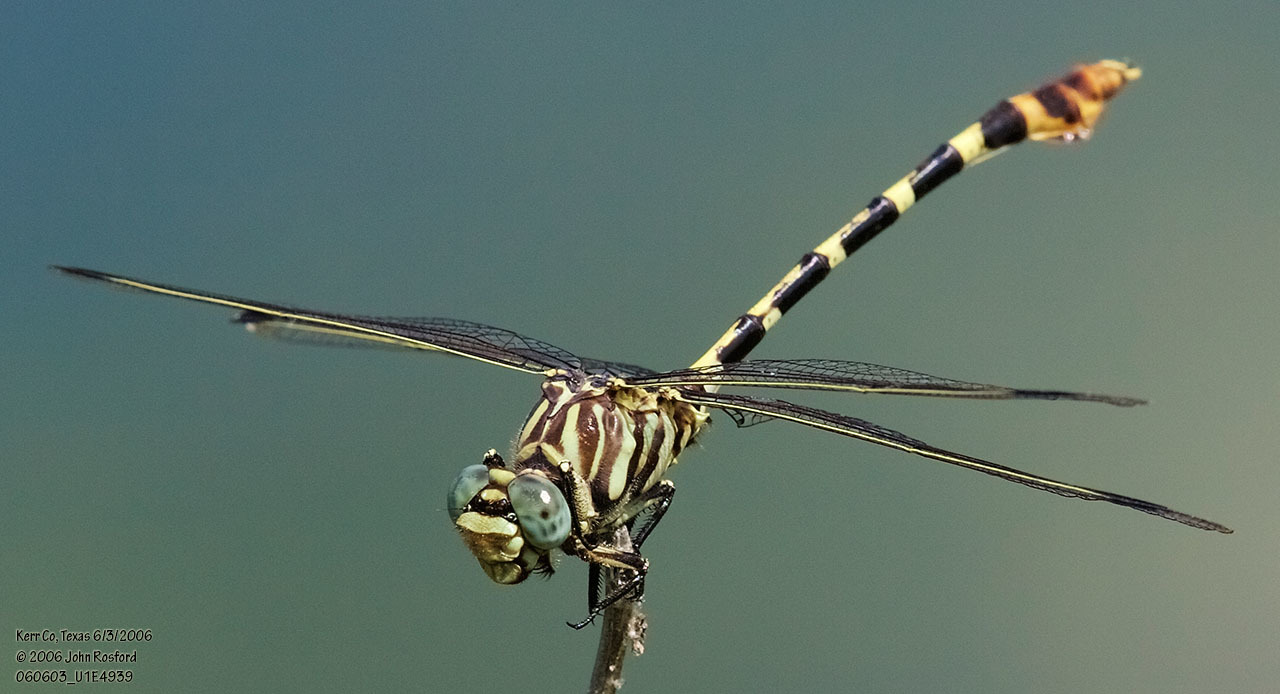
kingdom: Animalia
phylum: Arthropoda
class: Insecta
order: Odonata
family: Gomphidae
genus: Phyllogomphoides
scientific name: Phyllogomphoides stigmatus
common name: Four-striped leaftail
